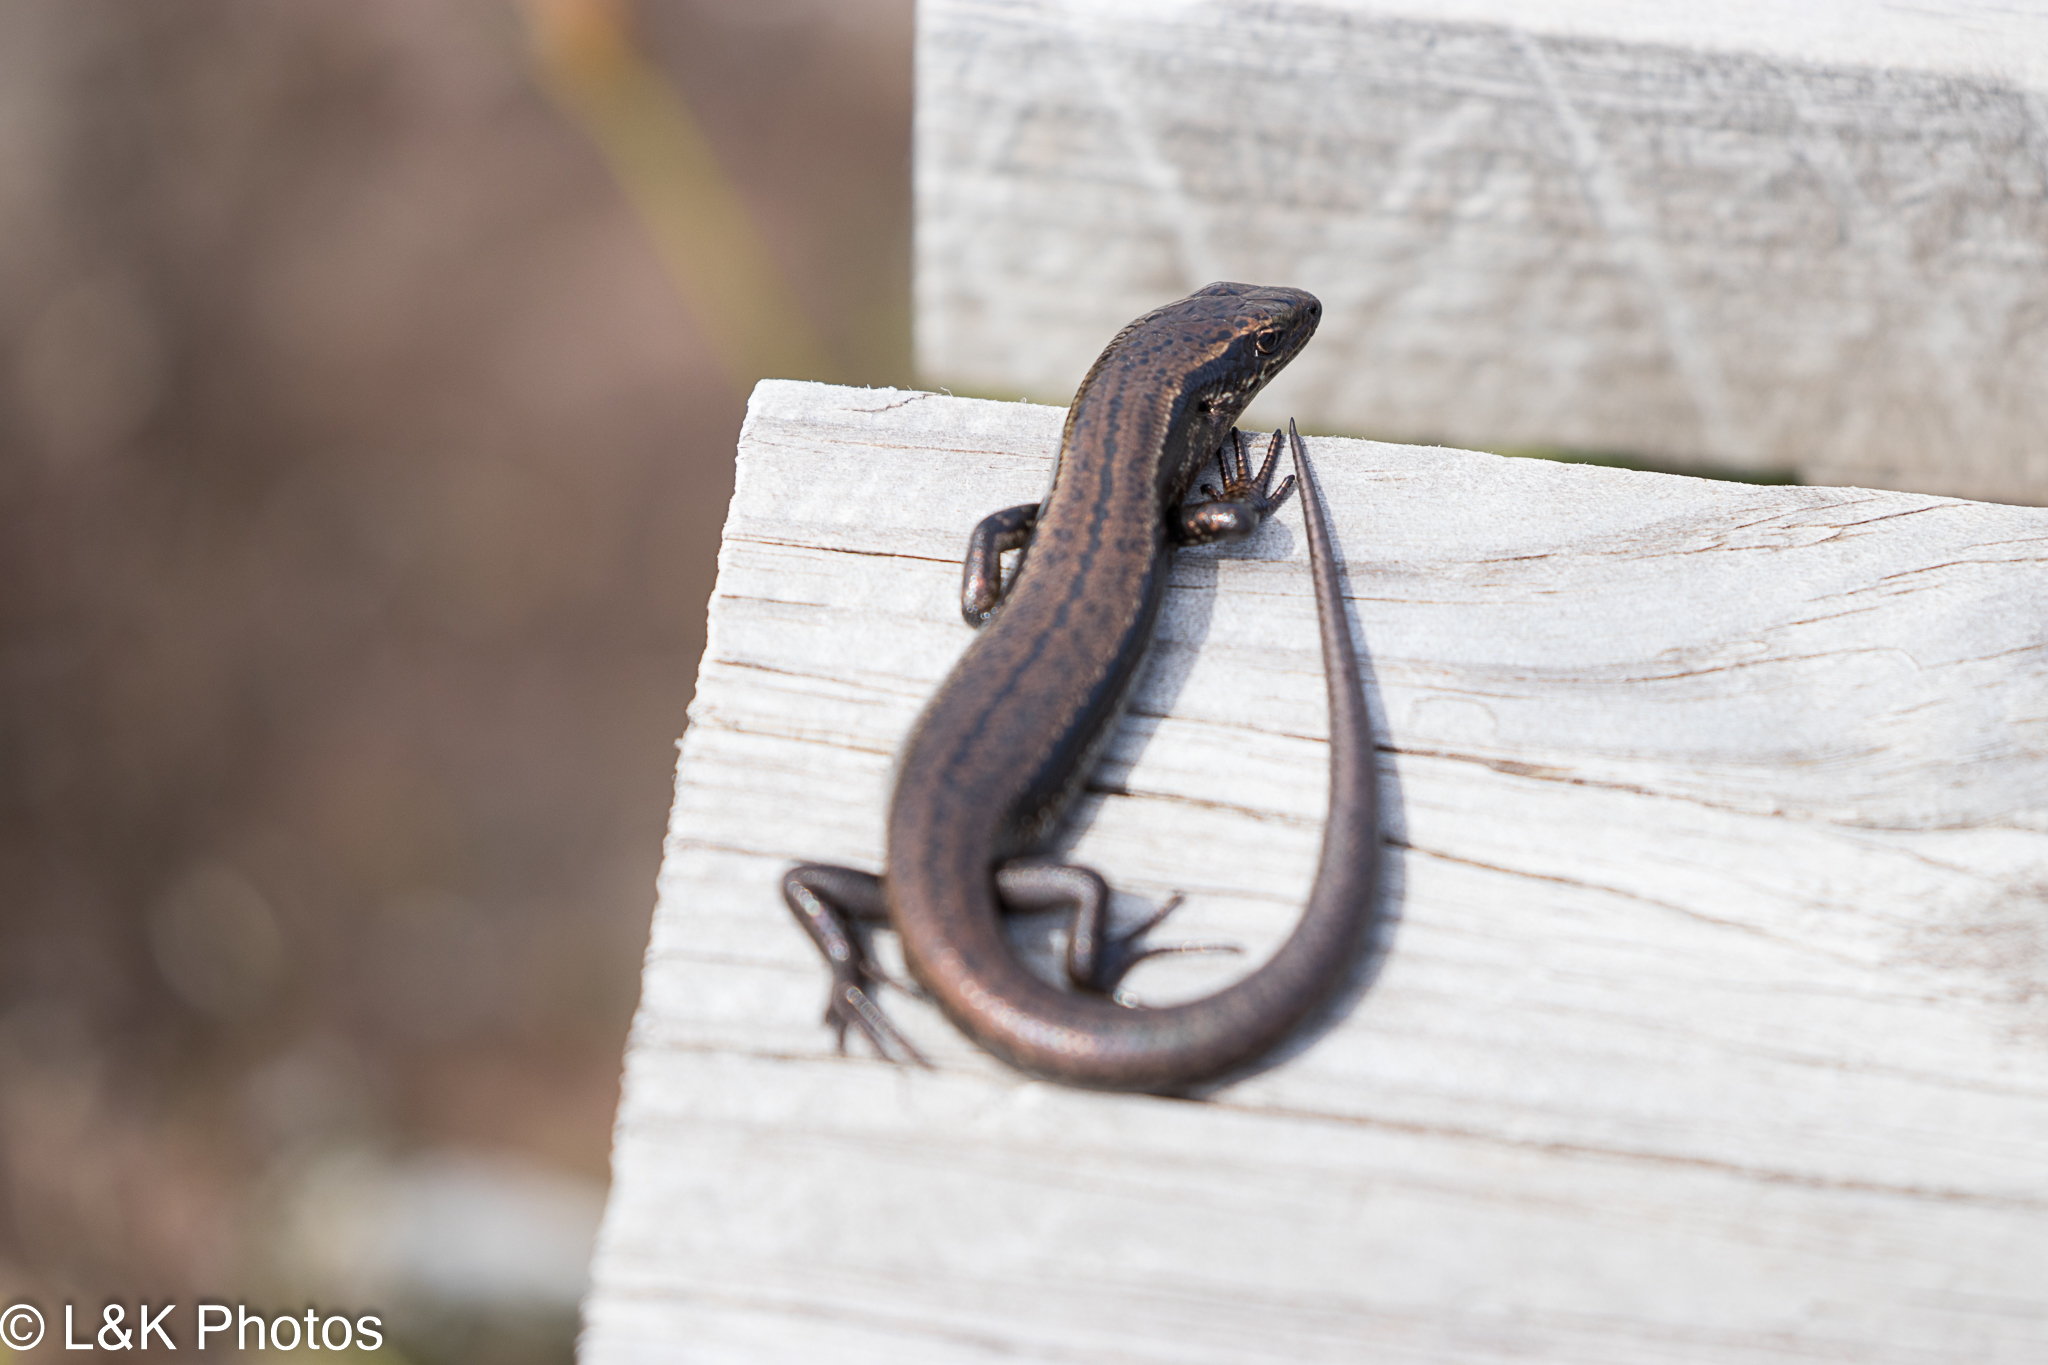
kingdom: Animalia
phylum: Chordata
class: Squamata
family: Scincidae
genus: Carinascincus
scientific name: Carinascincus metallicus
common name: Metallic cool-skink
